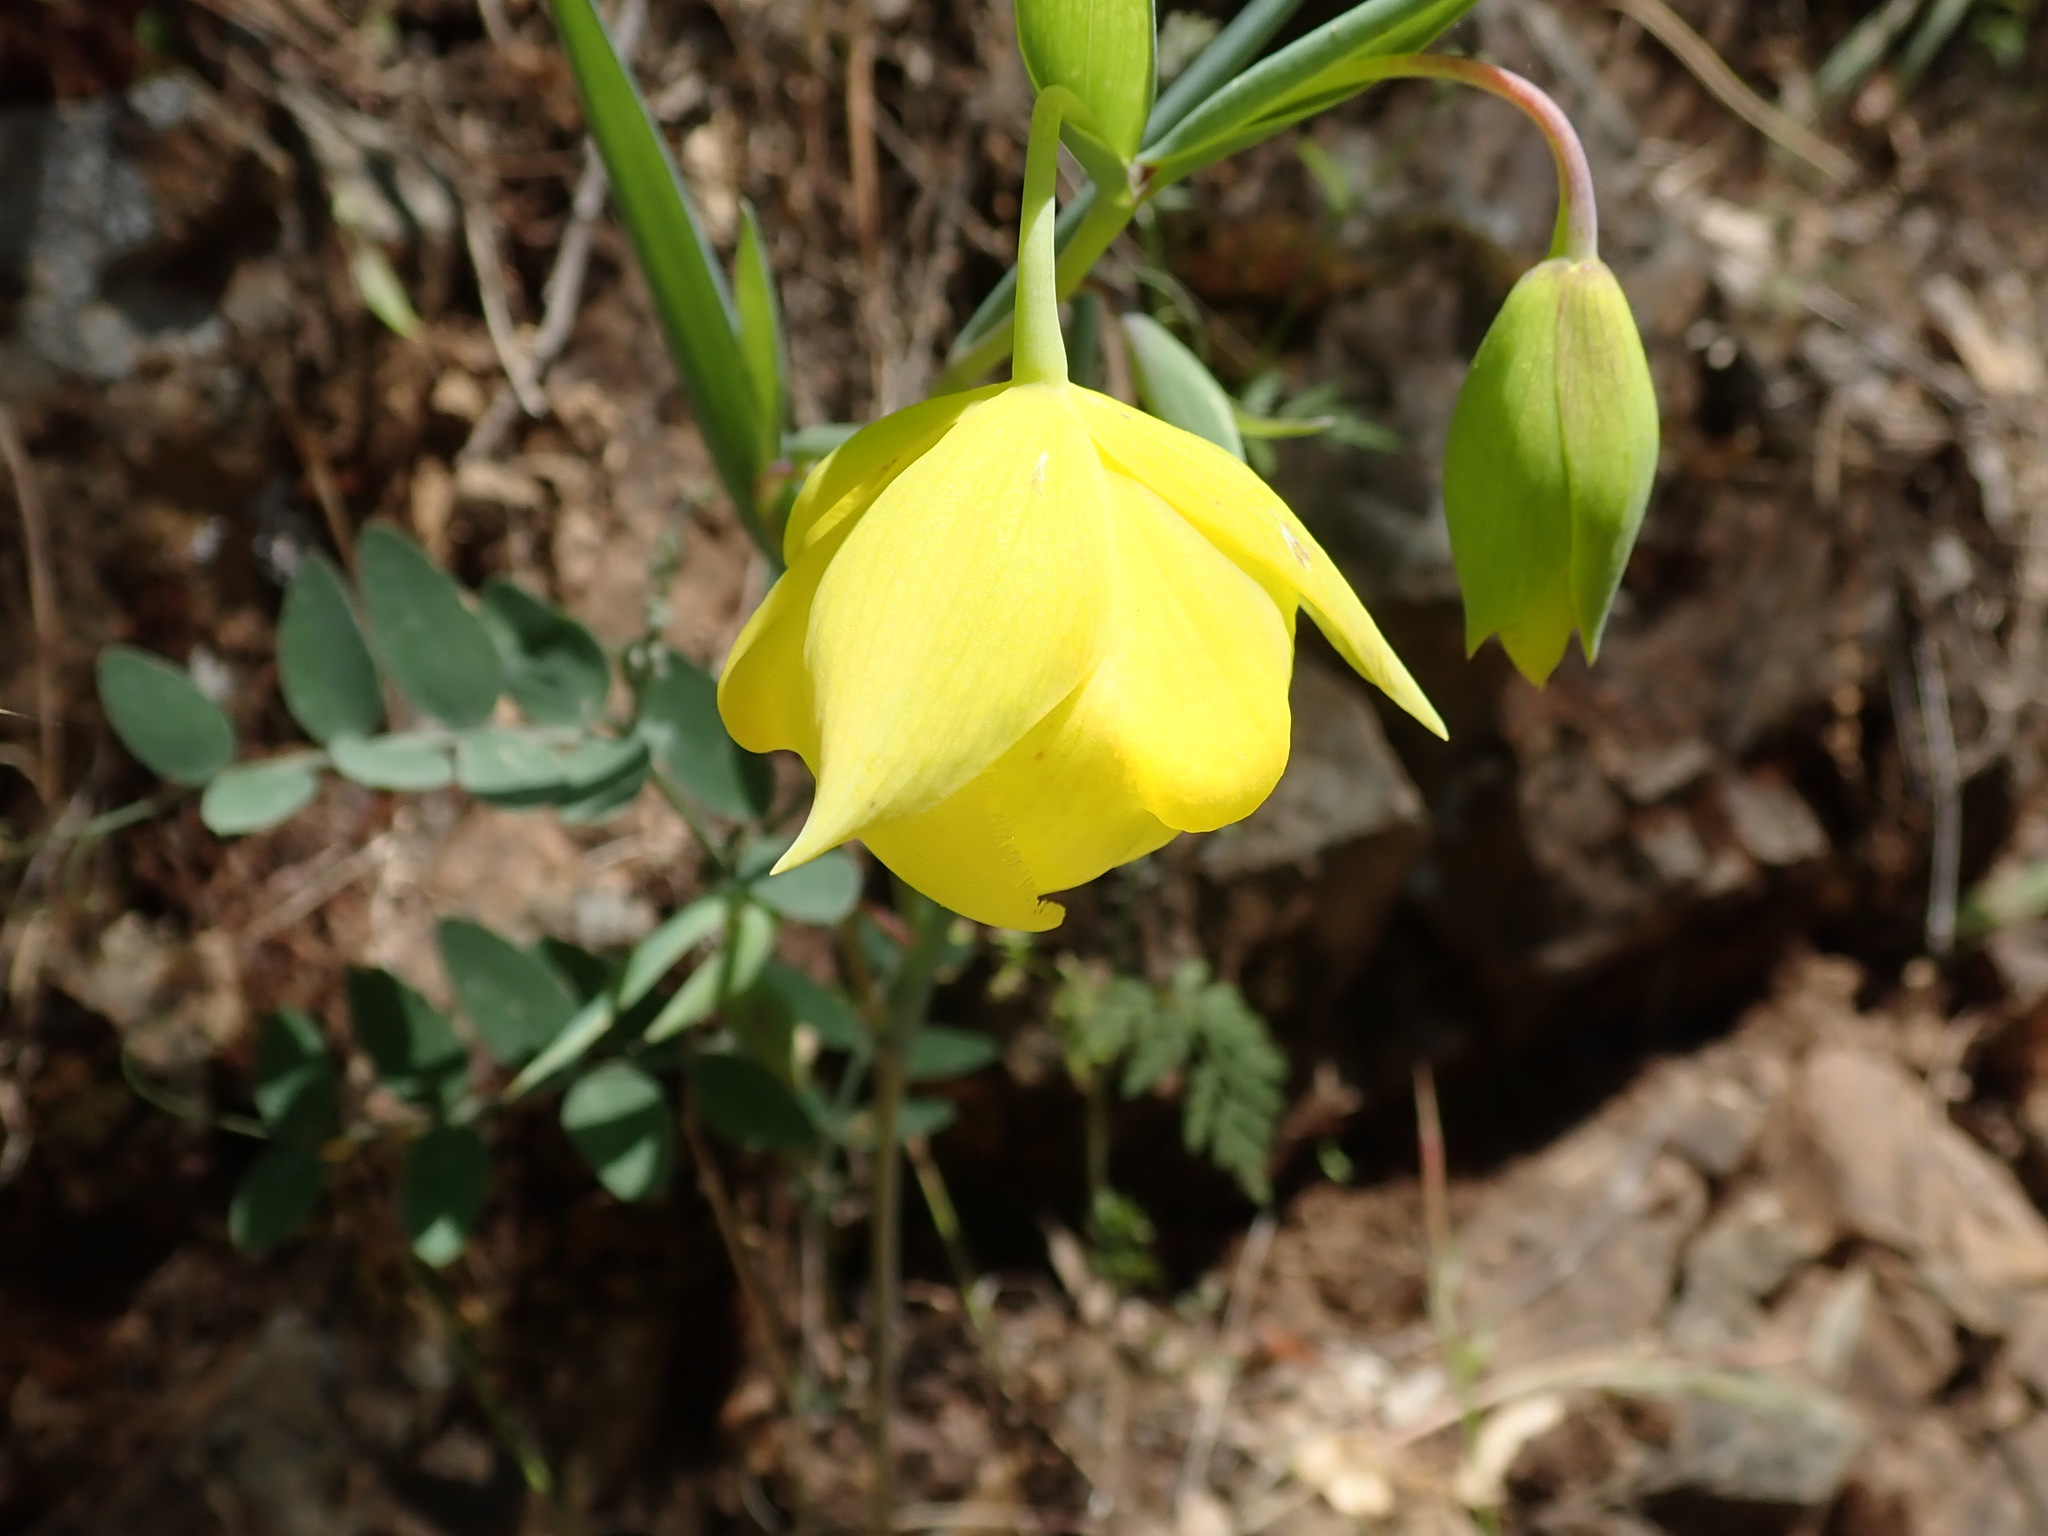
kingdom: Plantae
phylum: Tracheophyta
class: Liliopsida
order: Liliales
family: Liliaceae
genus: Calochortus
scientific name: Calochortus pulchellus
